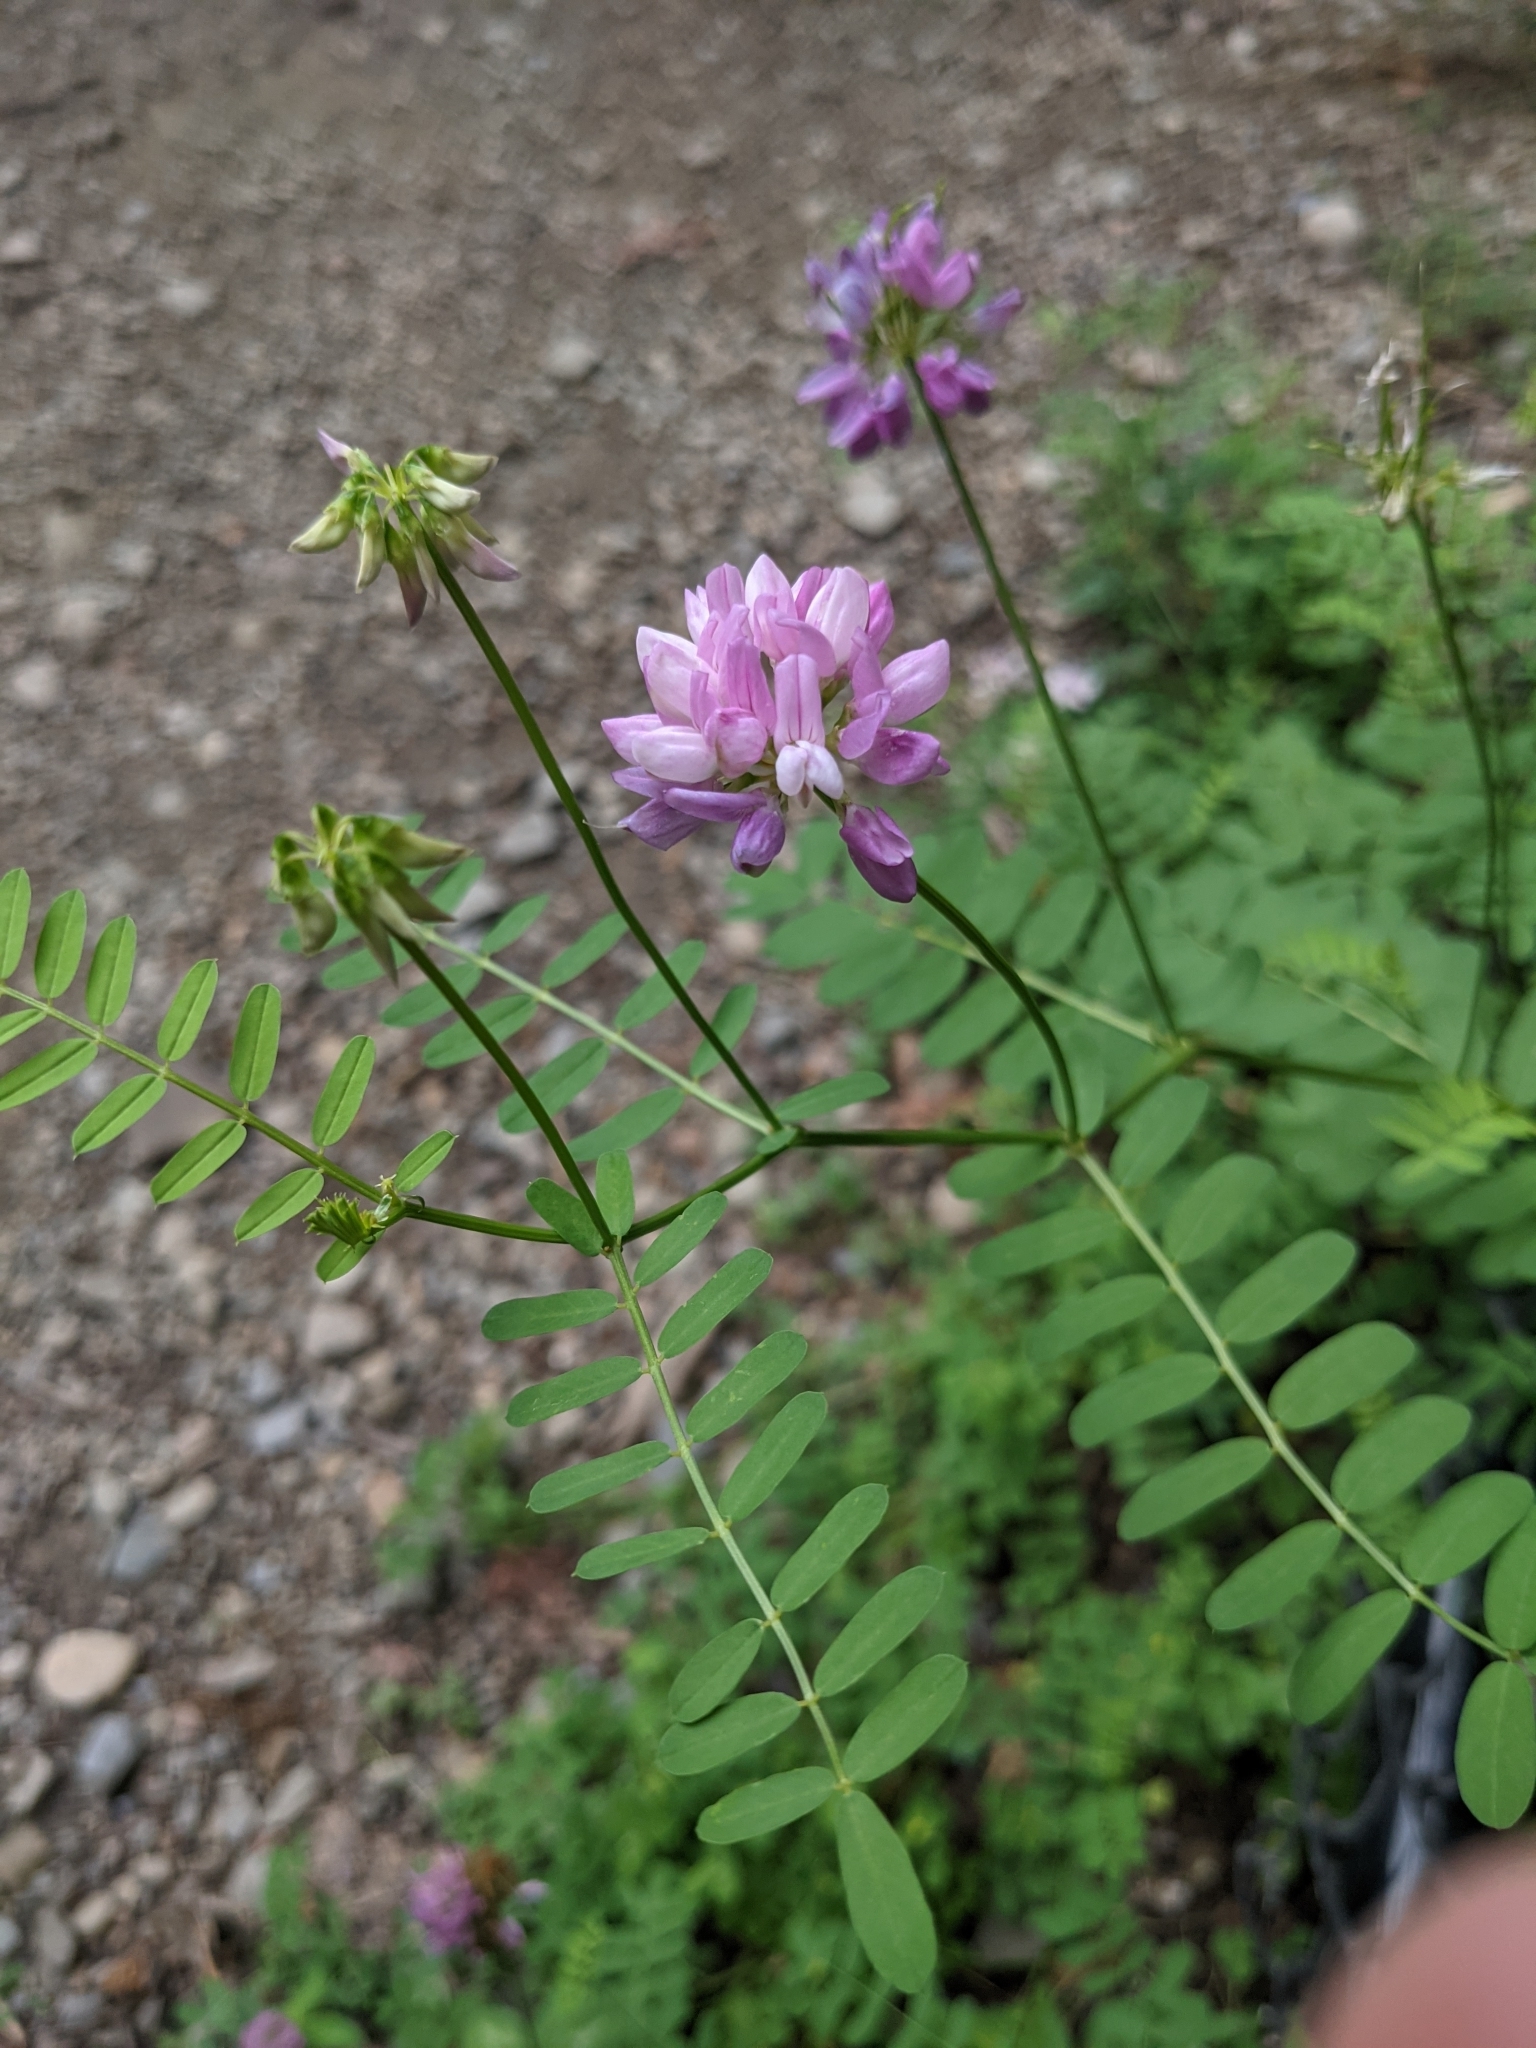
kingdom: Plantae
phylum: Tracheophyta
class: Magnoliopsida
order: Fabales
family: Fabaceae
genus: Coronilla
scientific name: Coronilla varia
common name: Crownvetch
